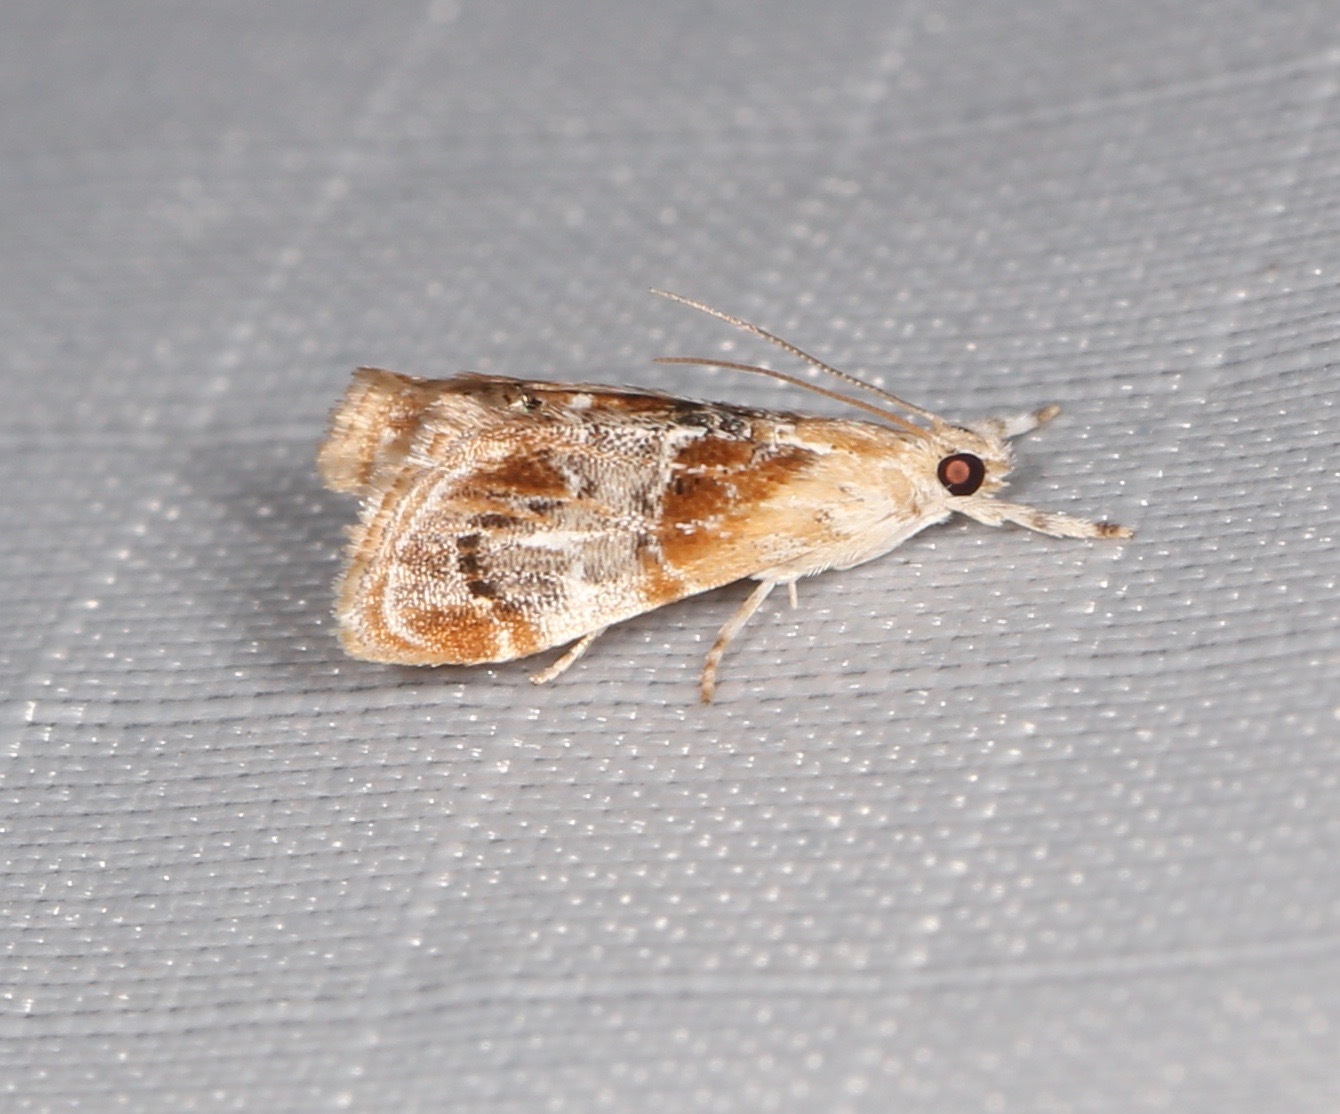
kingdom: Animalia
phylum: Arthropoda
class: Insecta
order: Lepidoptera
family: Crambidae
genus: Dicymolomia
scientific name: Dicymolomia julianalis
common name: Julia's dicymolomia moth
